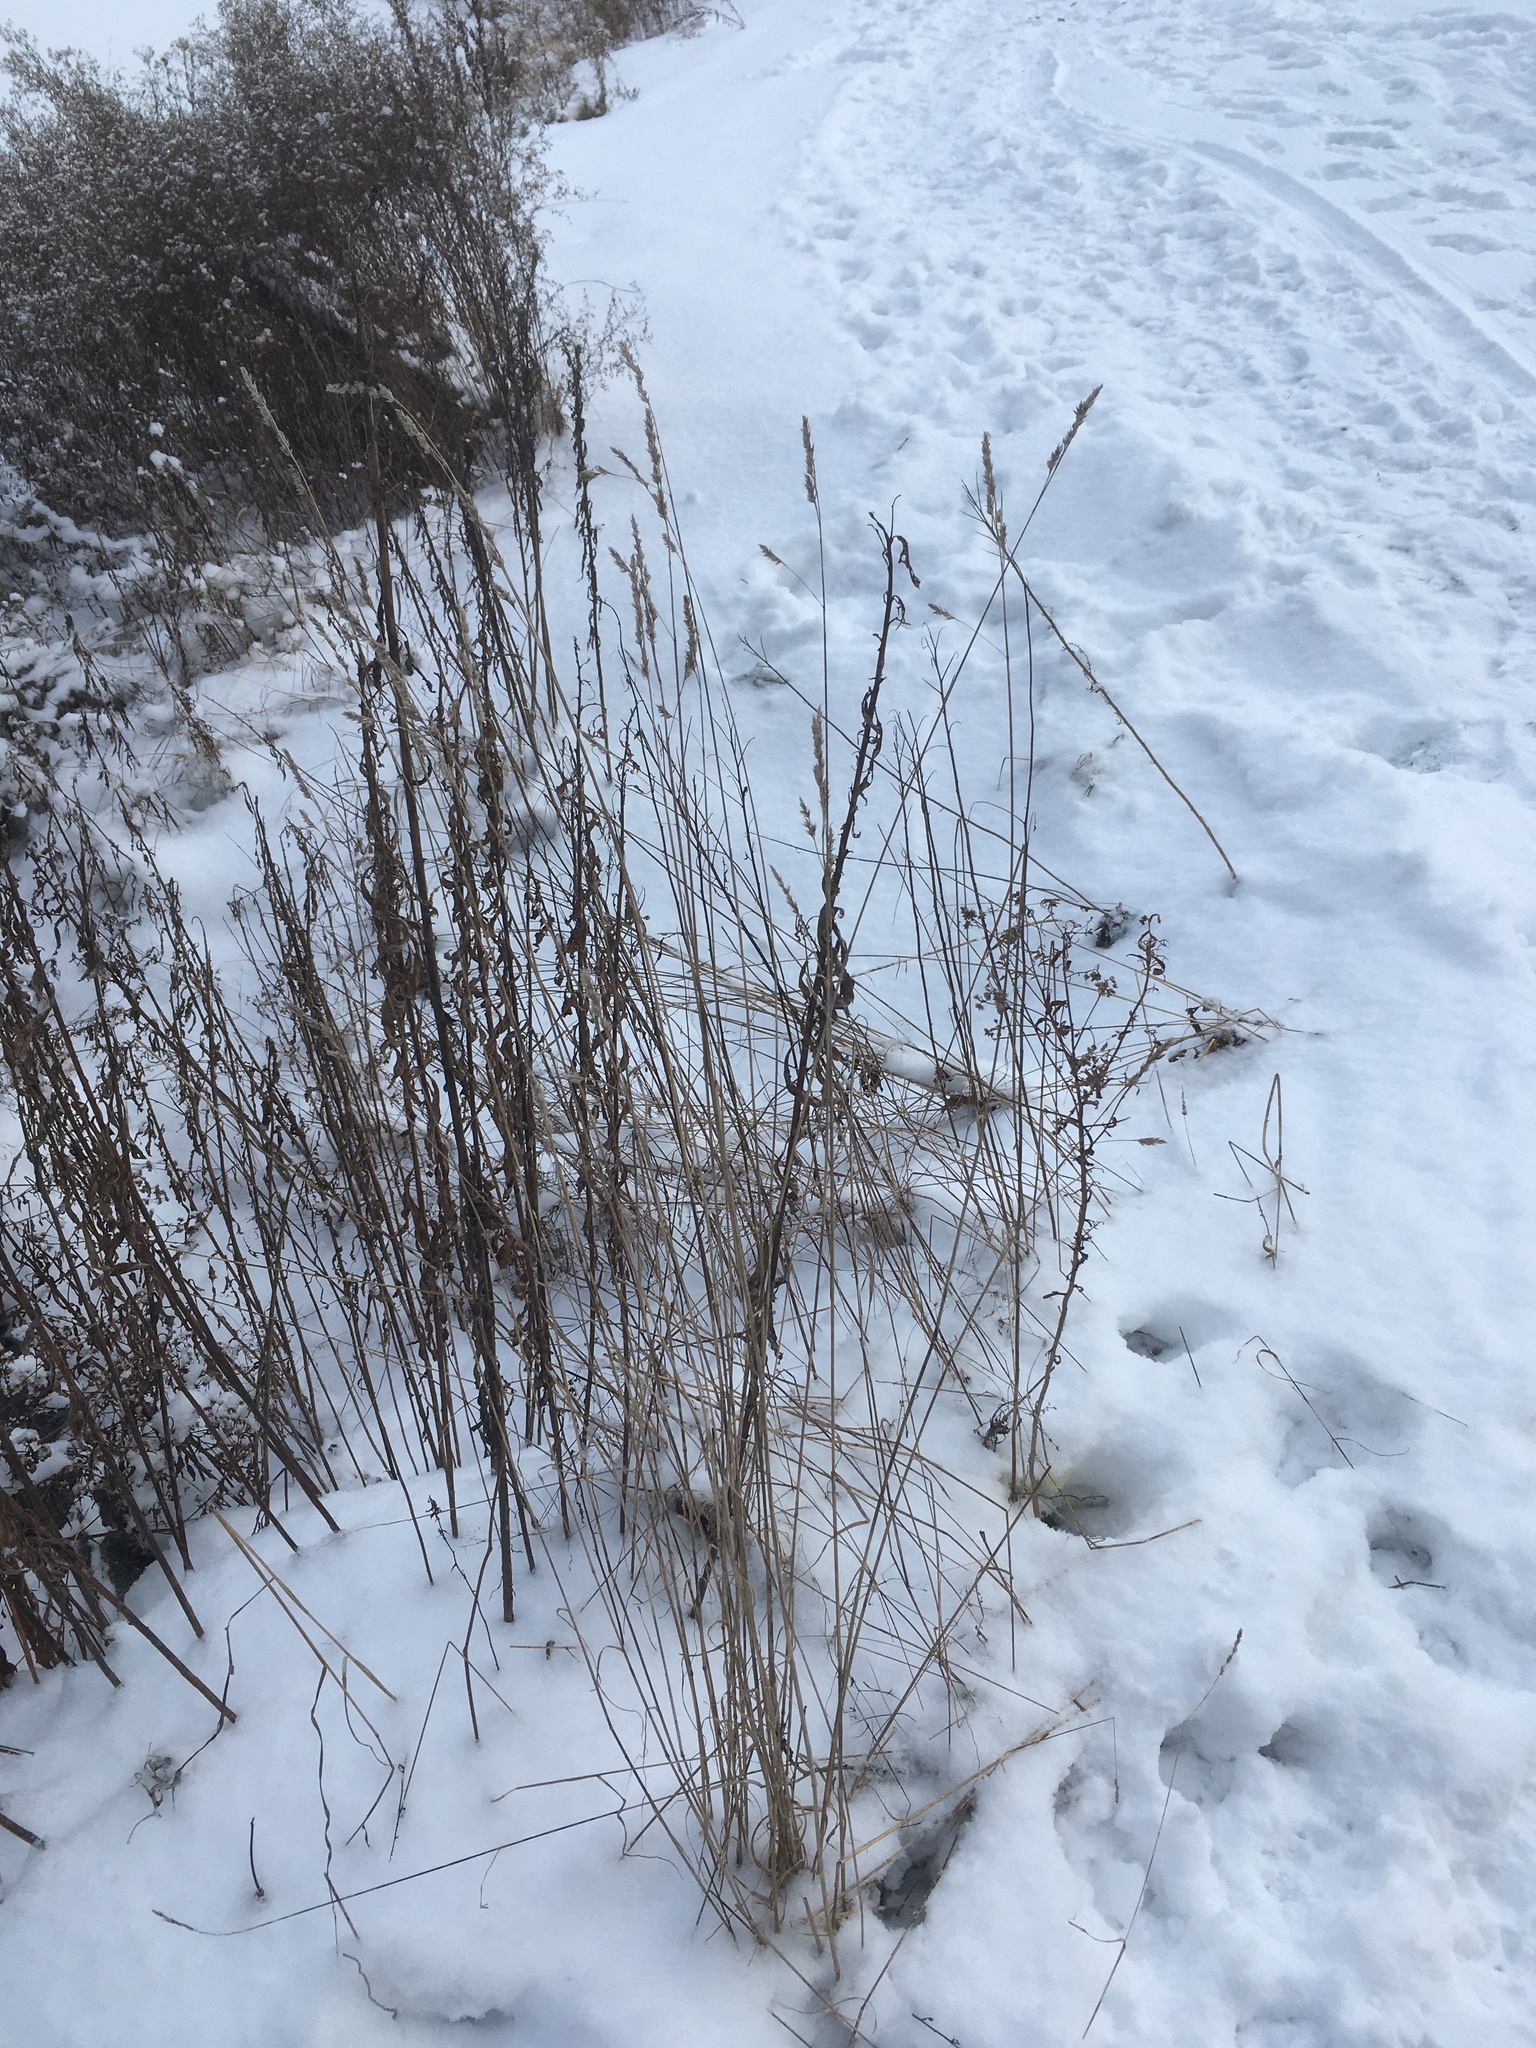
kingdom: Plantae
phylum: Tracheophyta
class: Liliopsida
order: Poales
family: Poaceae
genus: Dactylis
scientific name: Dactylis glomerata
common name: Orchardgrass
